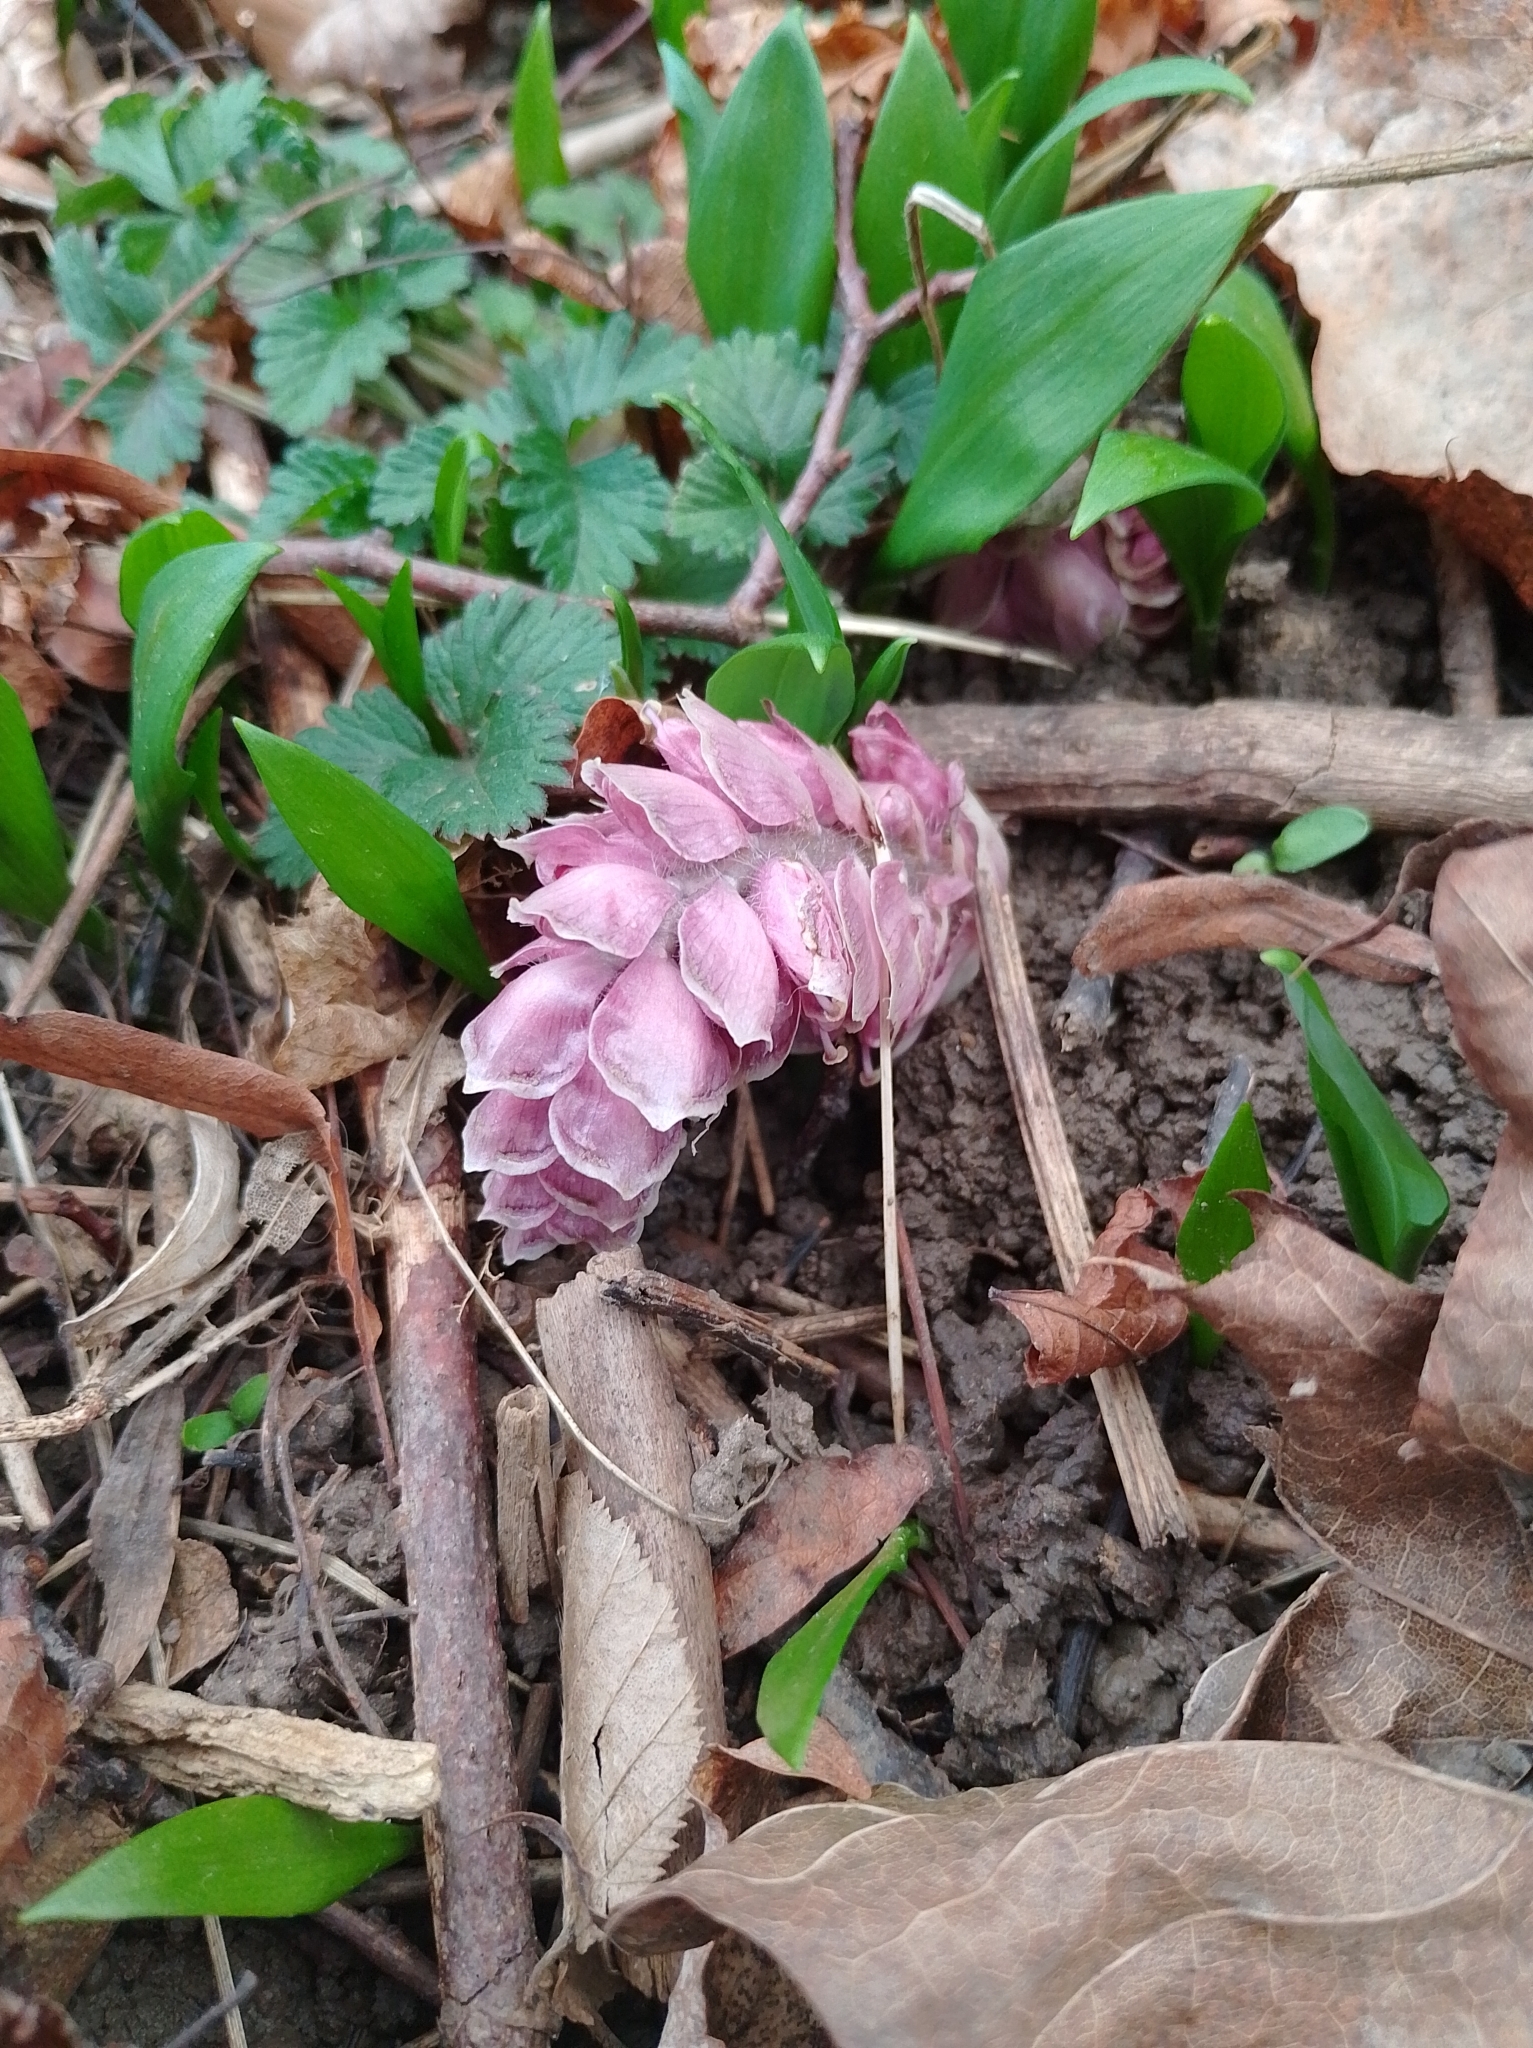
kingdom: Plantae
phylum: Tracheophyta
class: Magnoliopsida
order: Lamiales
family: Orobanchaceae
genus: Lathraea
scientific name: Lathraea squamaria
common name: Toothwort
